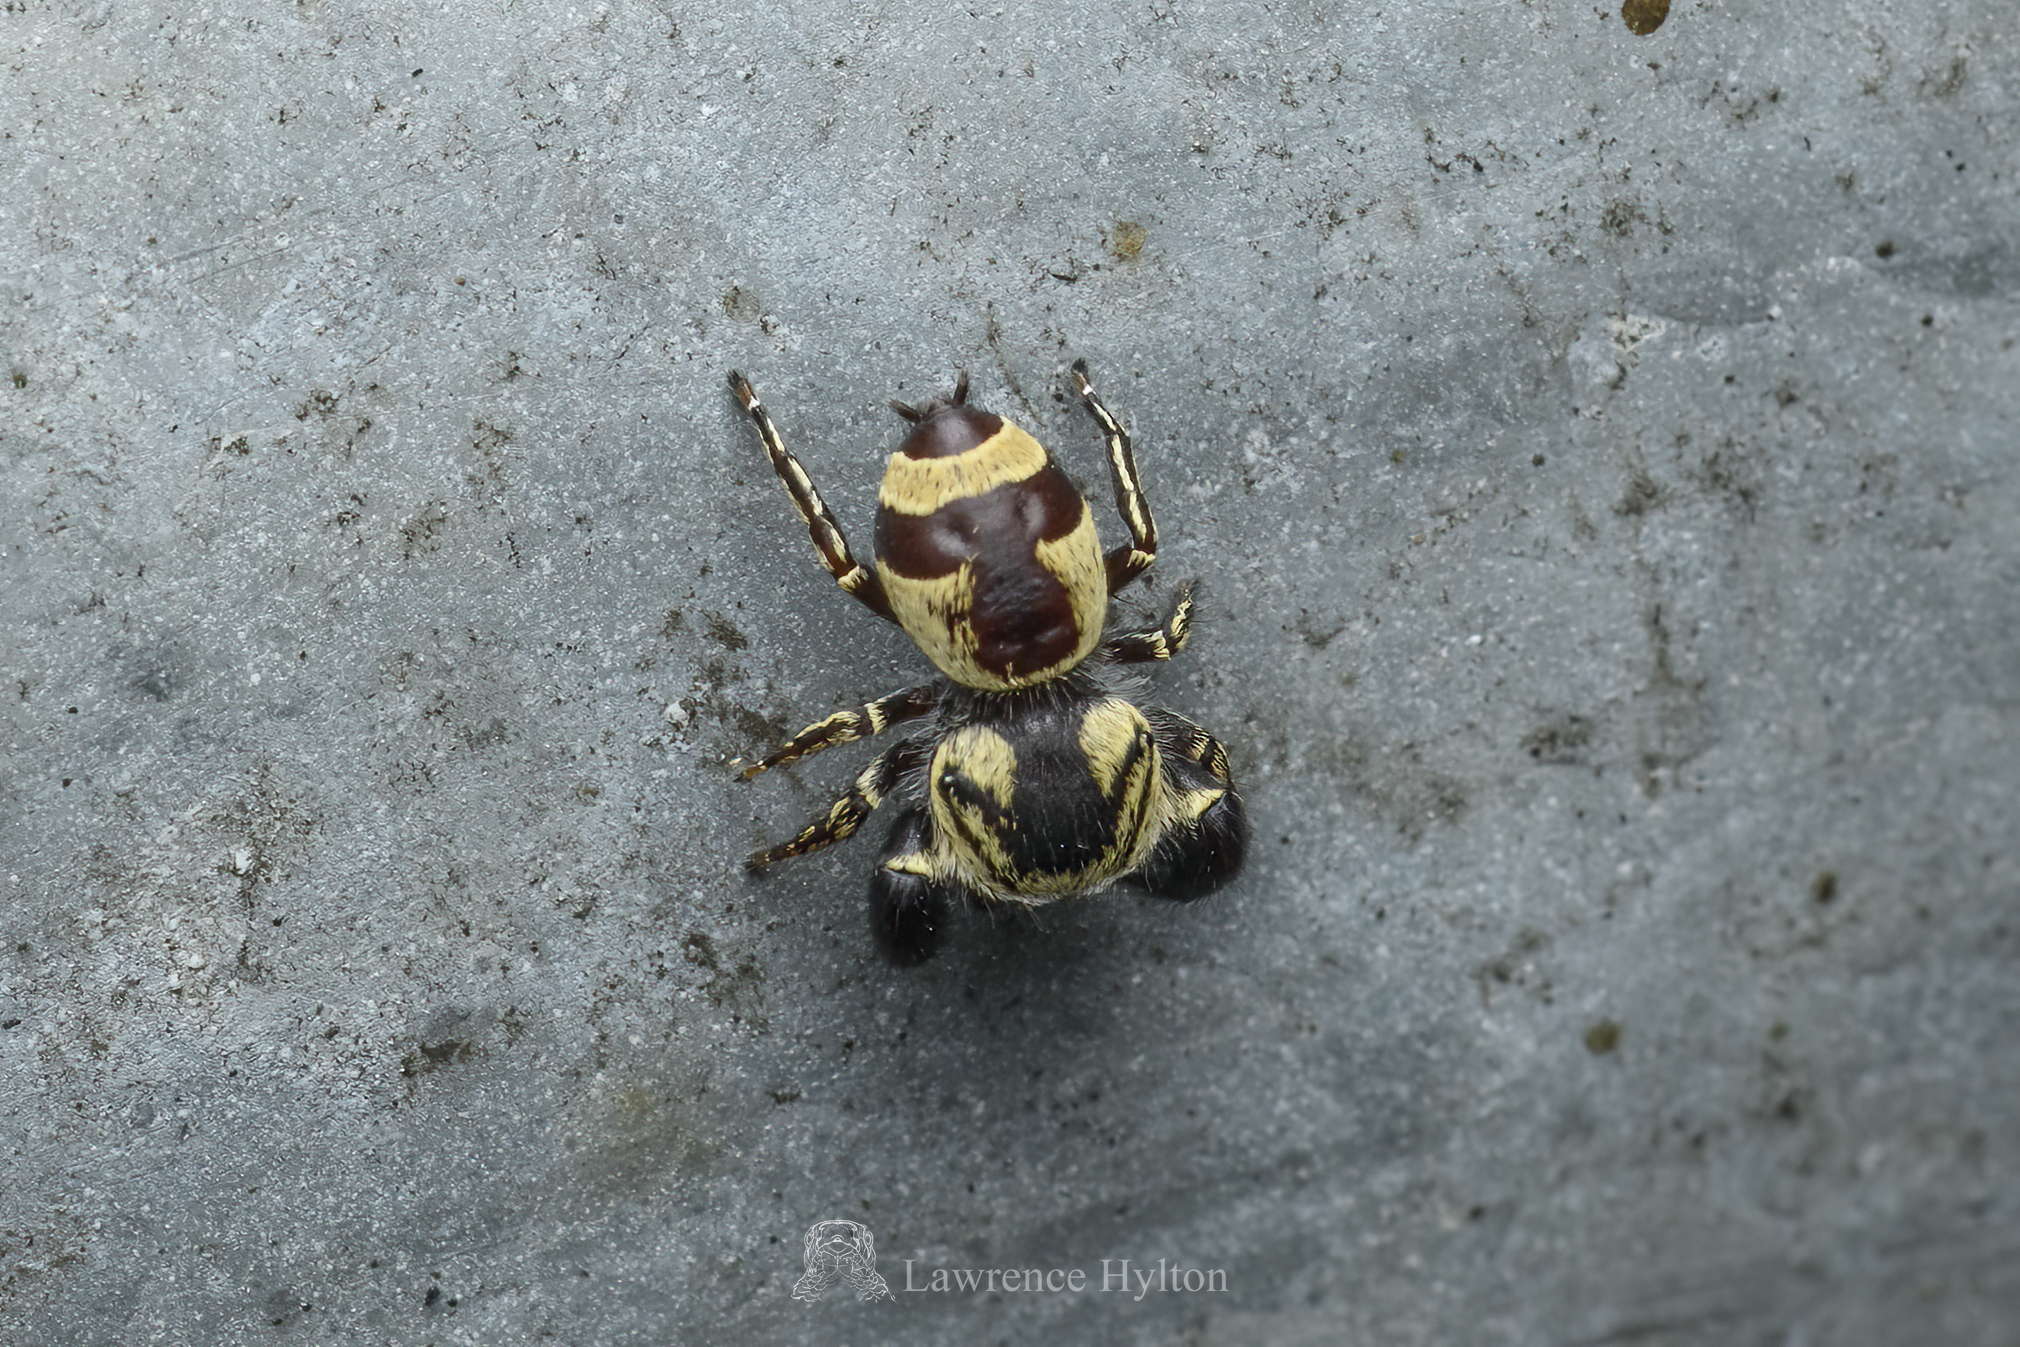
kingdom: Animalia
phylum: Arthropoda
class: Arachnida
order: Araneae
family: Salticidae
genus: Rhene
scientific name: Rhene flavicomans
